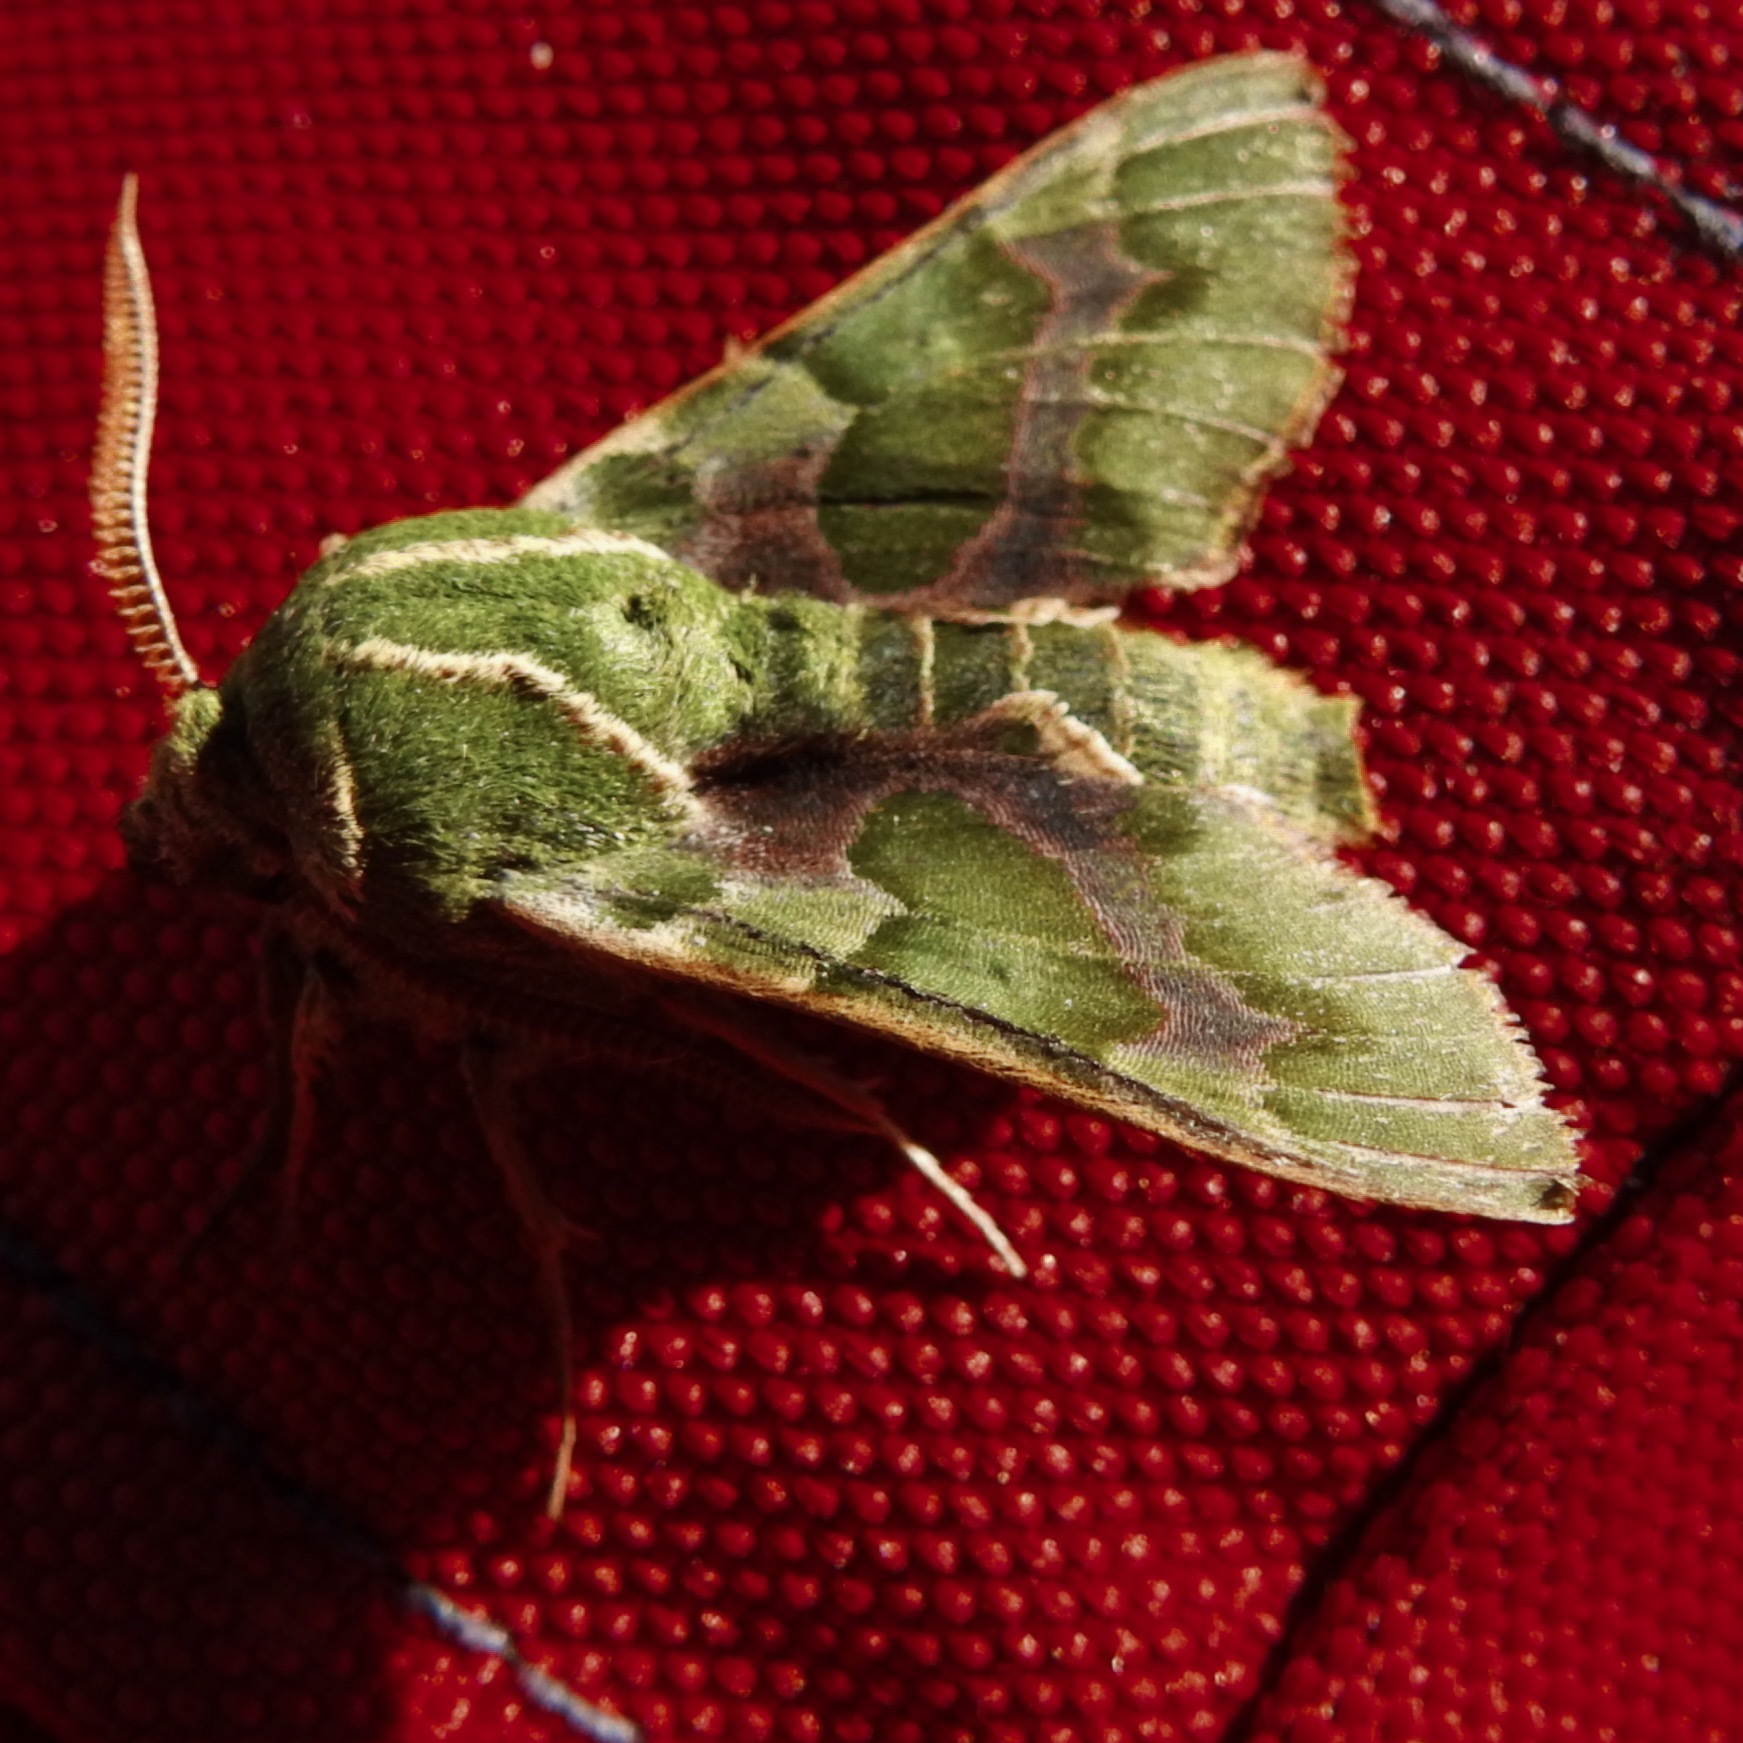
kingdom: Animalia
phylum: Arthropoda
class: Insecta
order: Lepidoptera
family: Sphingidae
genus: Proserpinus
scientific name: Proserpinus lucidus
